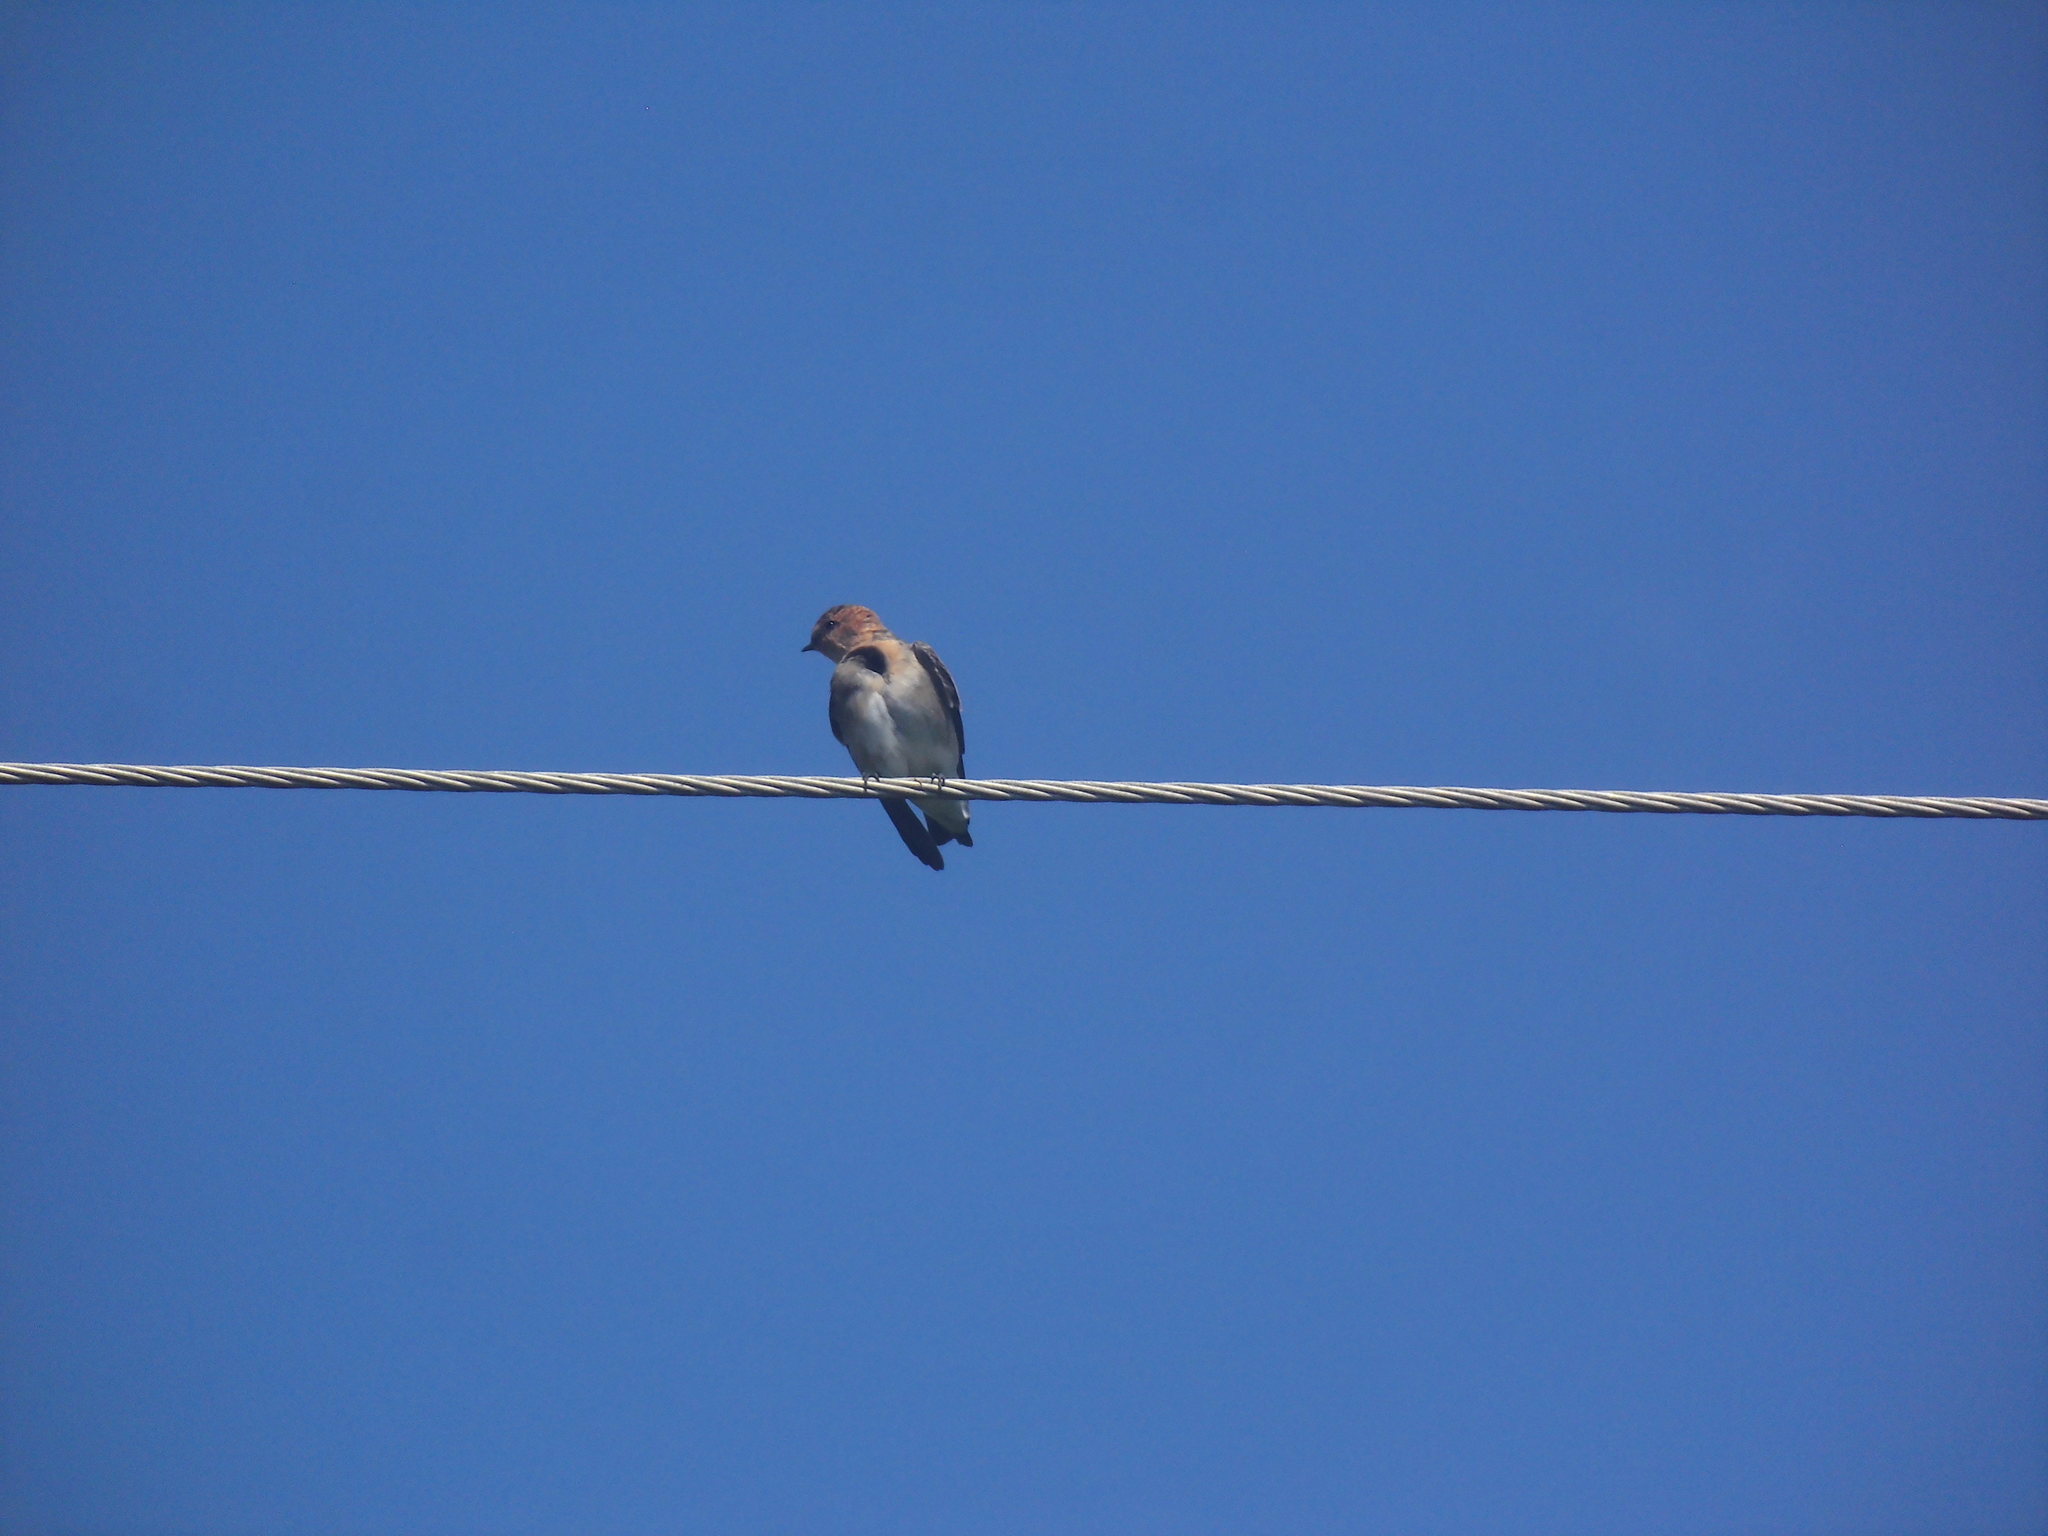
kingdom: Animalia
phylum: Chordata
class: Aves
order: Passeriformes
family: Hirundinidae
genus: Alopochelidon
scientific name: Alopochelidon fucata
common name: Tawny-headed swallow
